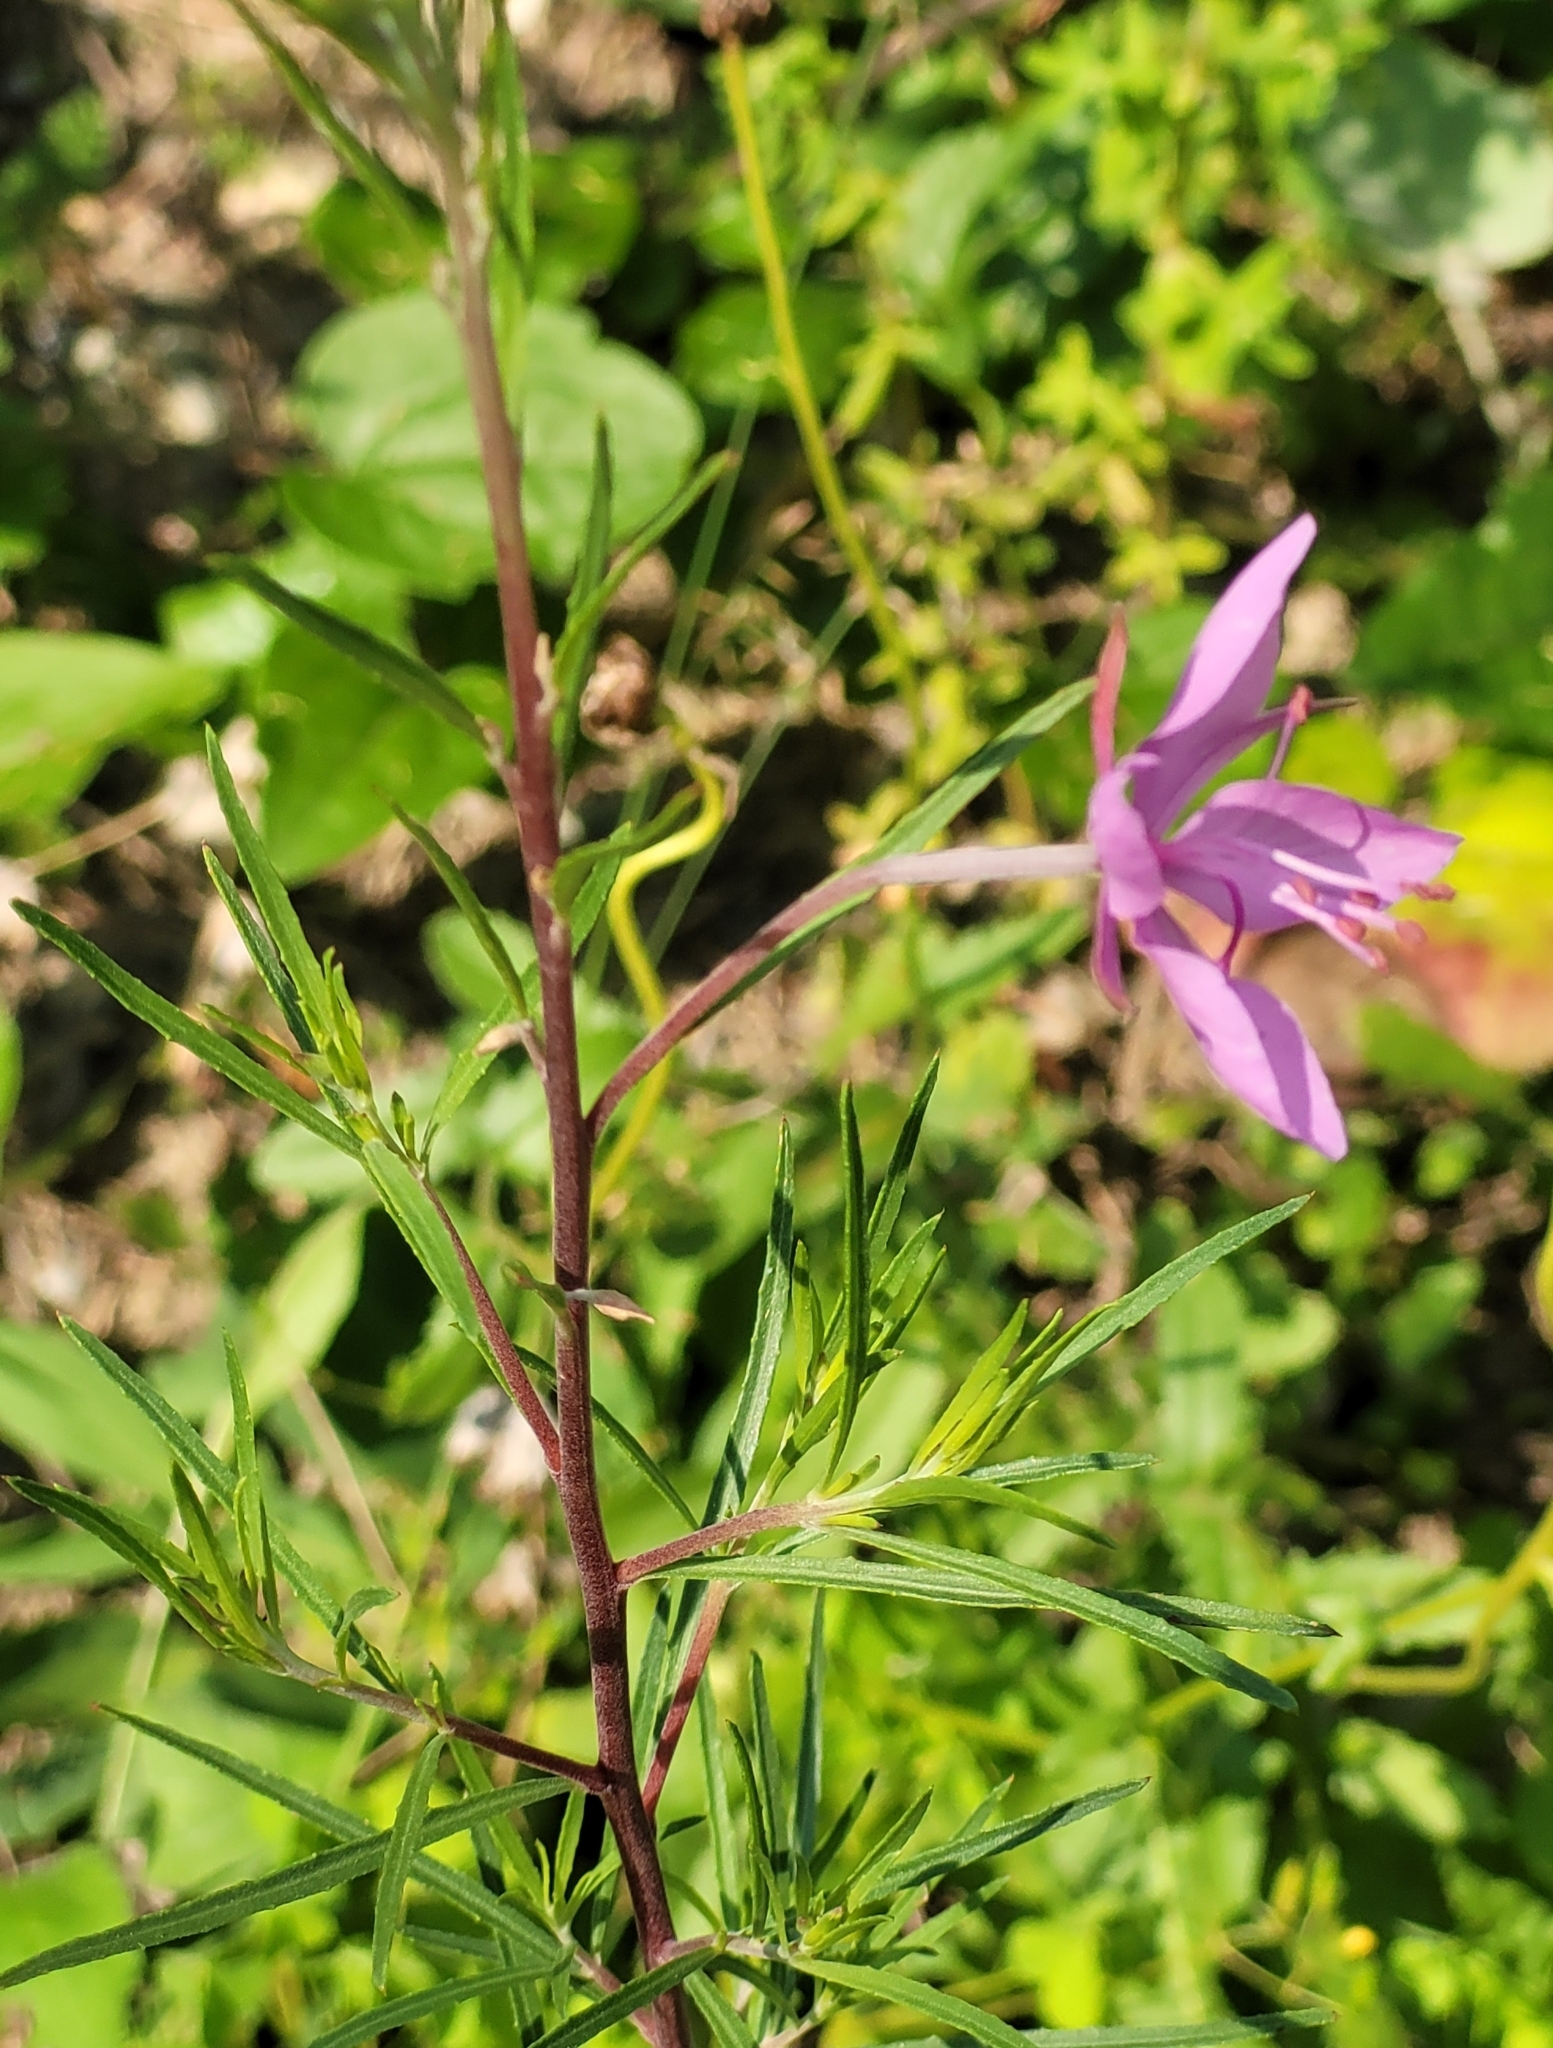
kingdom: Plantae
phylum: Tracheophyta
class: Magnoliopsida
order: Myrtales
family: Onagraceae
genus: Chamaenerion
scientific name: Chamaenerion dodonaei
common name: Rosemary-leaved willowherb
